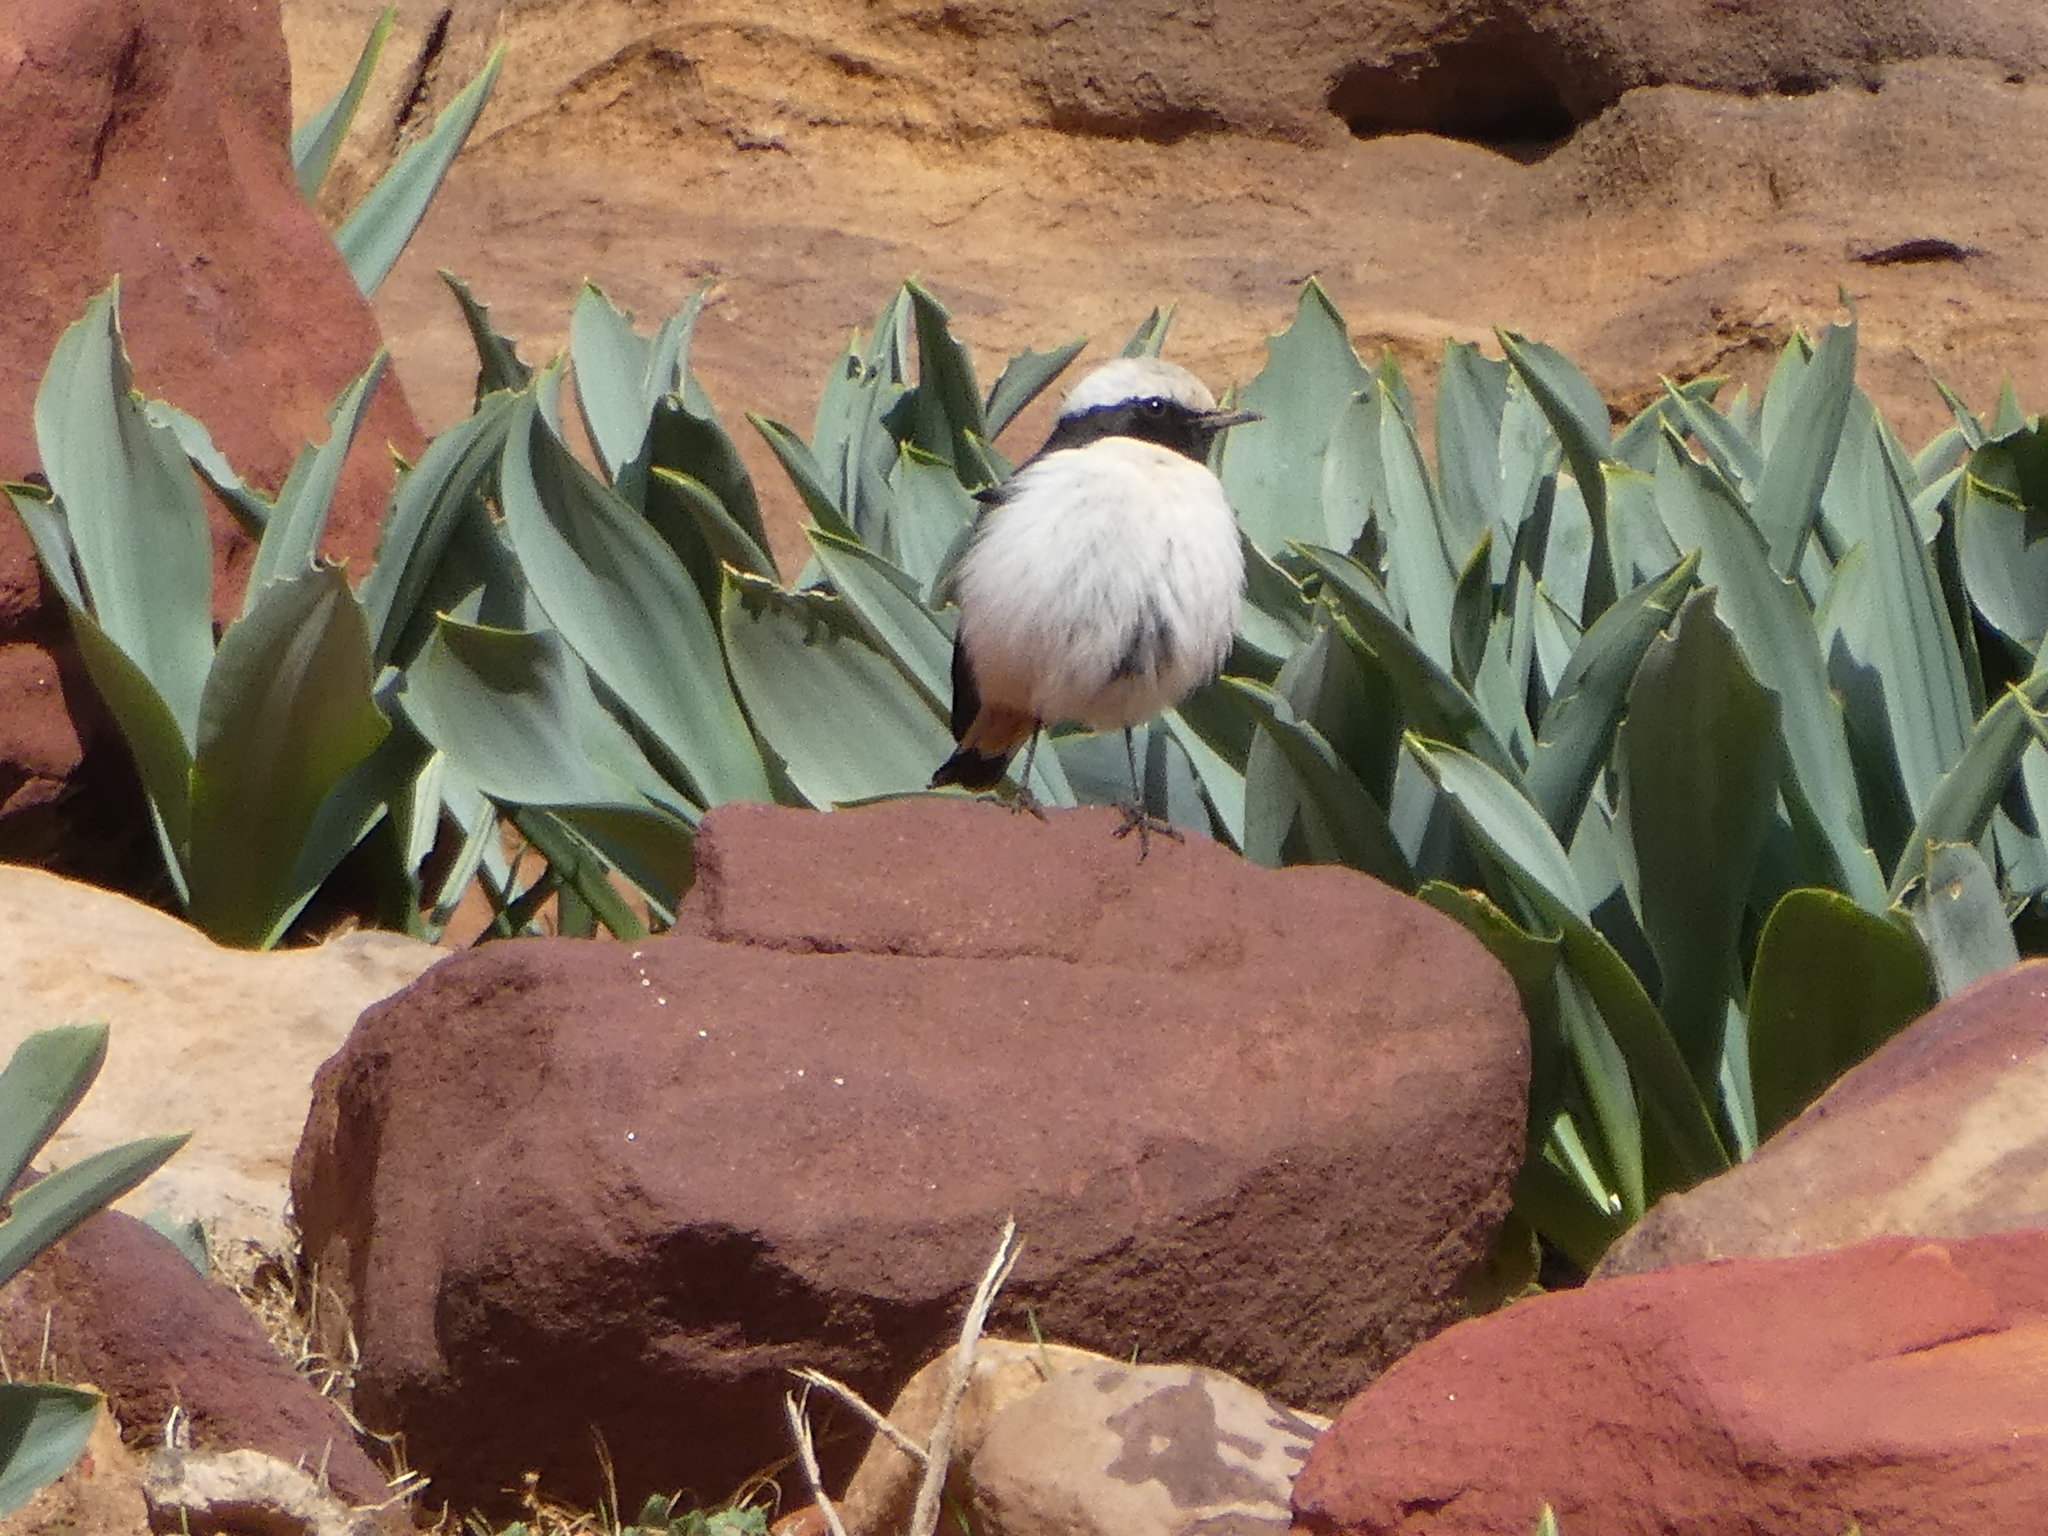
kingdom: Animalia
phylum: Chordata
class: Aves
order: Passeriformes
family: Muscicapidae
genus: Oenanthe
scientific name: Oenanthe lugens
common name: Mourning wheatear
